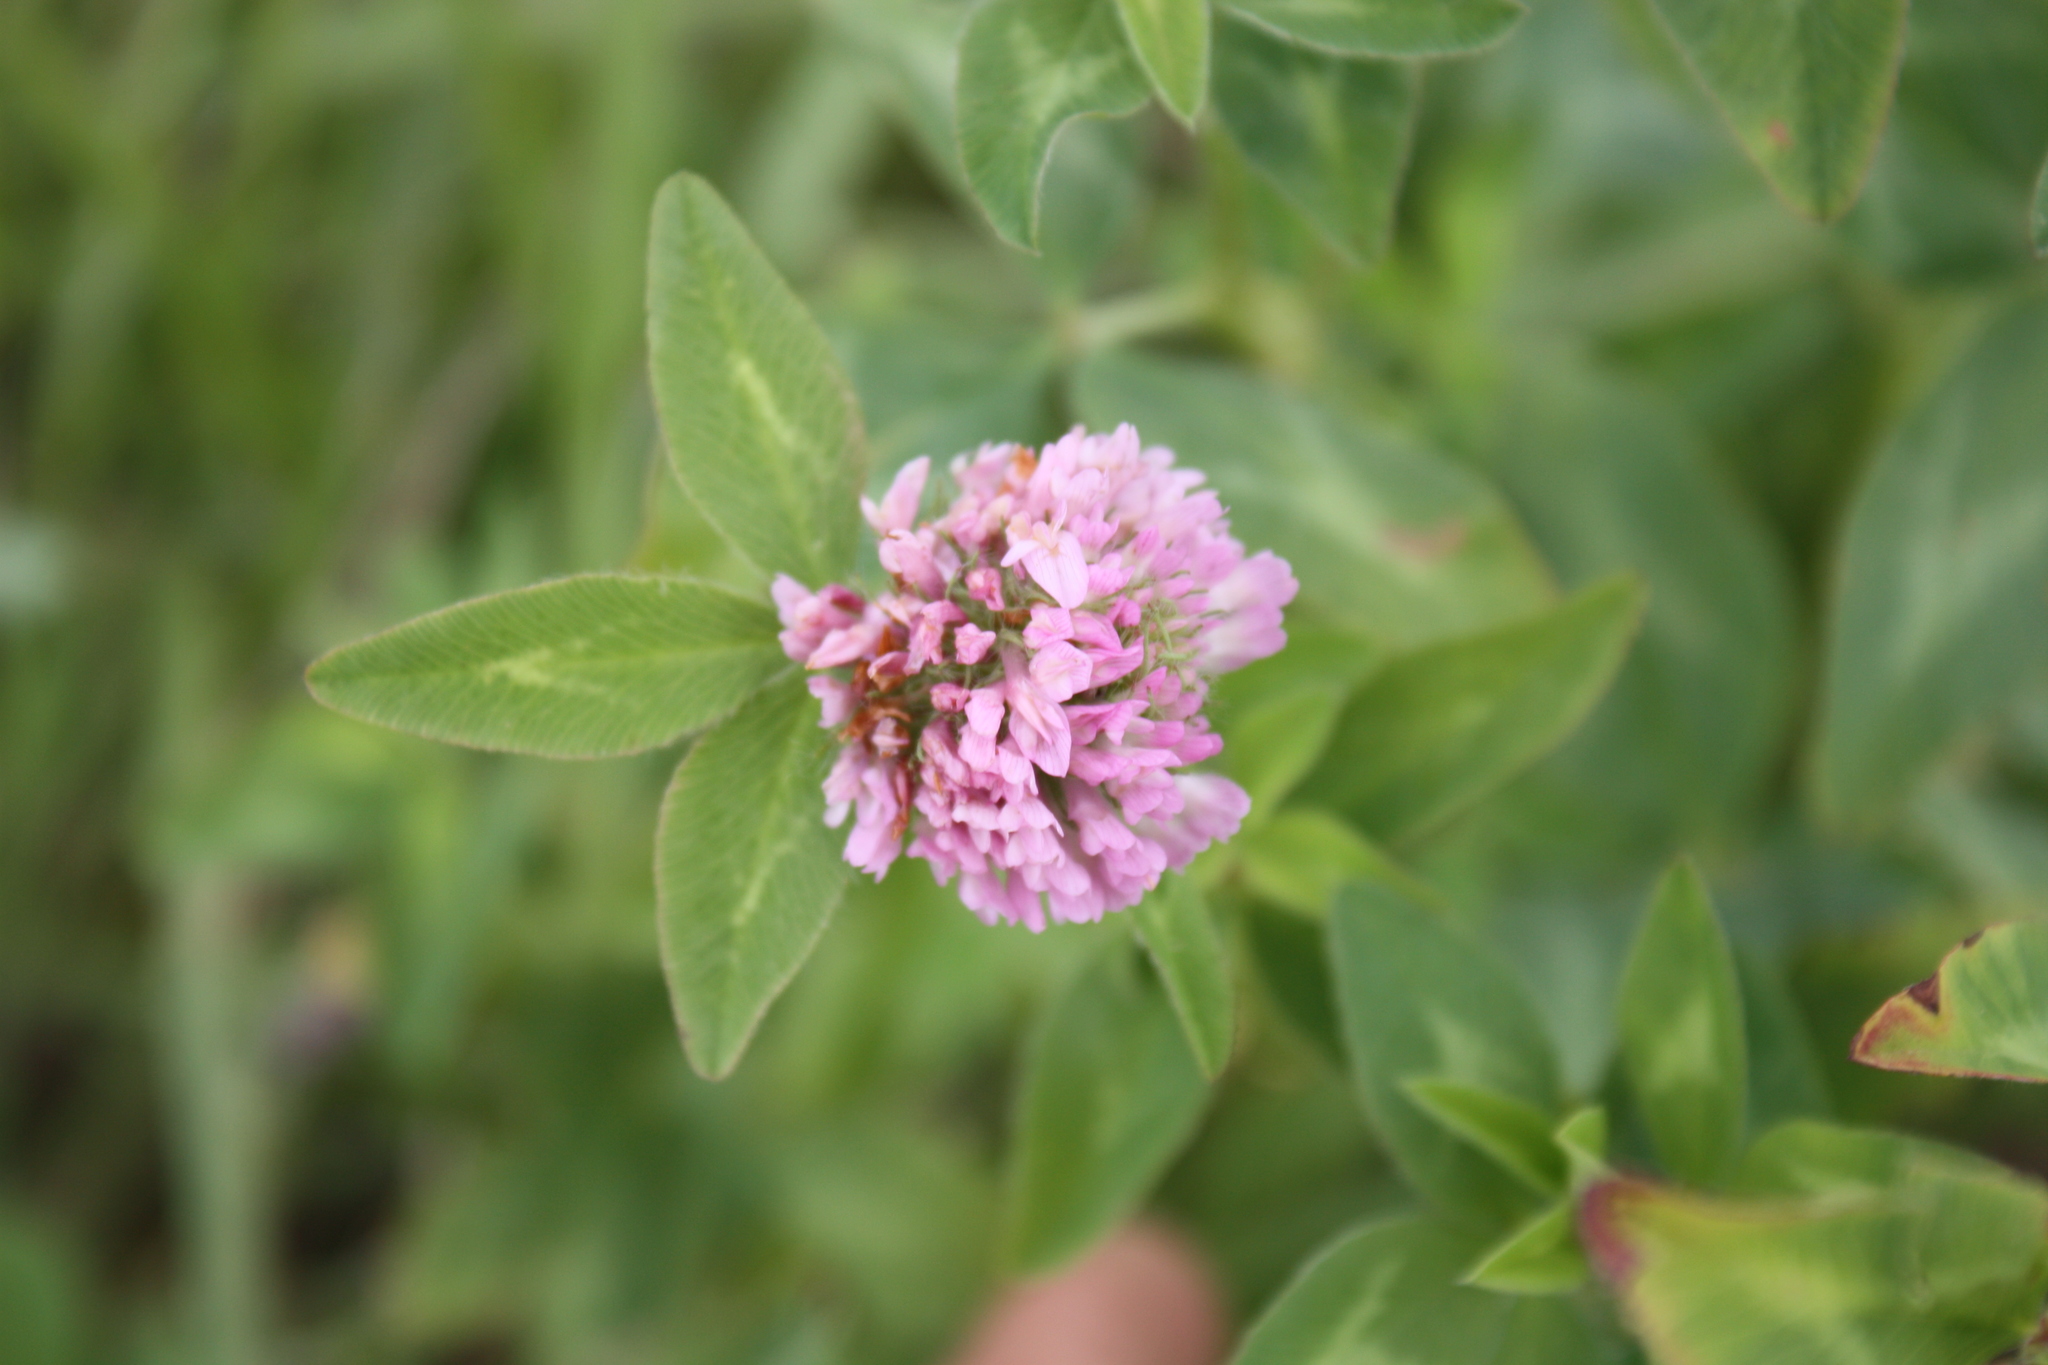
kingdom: Plantae
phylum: Tracheophyta
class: Magnoliopsida
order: Fabales
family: Fabaceae
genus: Trifolium
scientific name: Trifolium pratense
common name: Red clover
